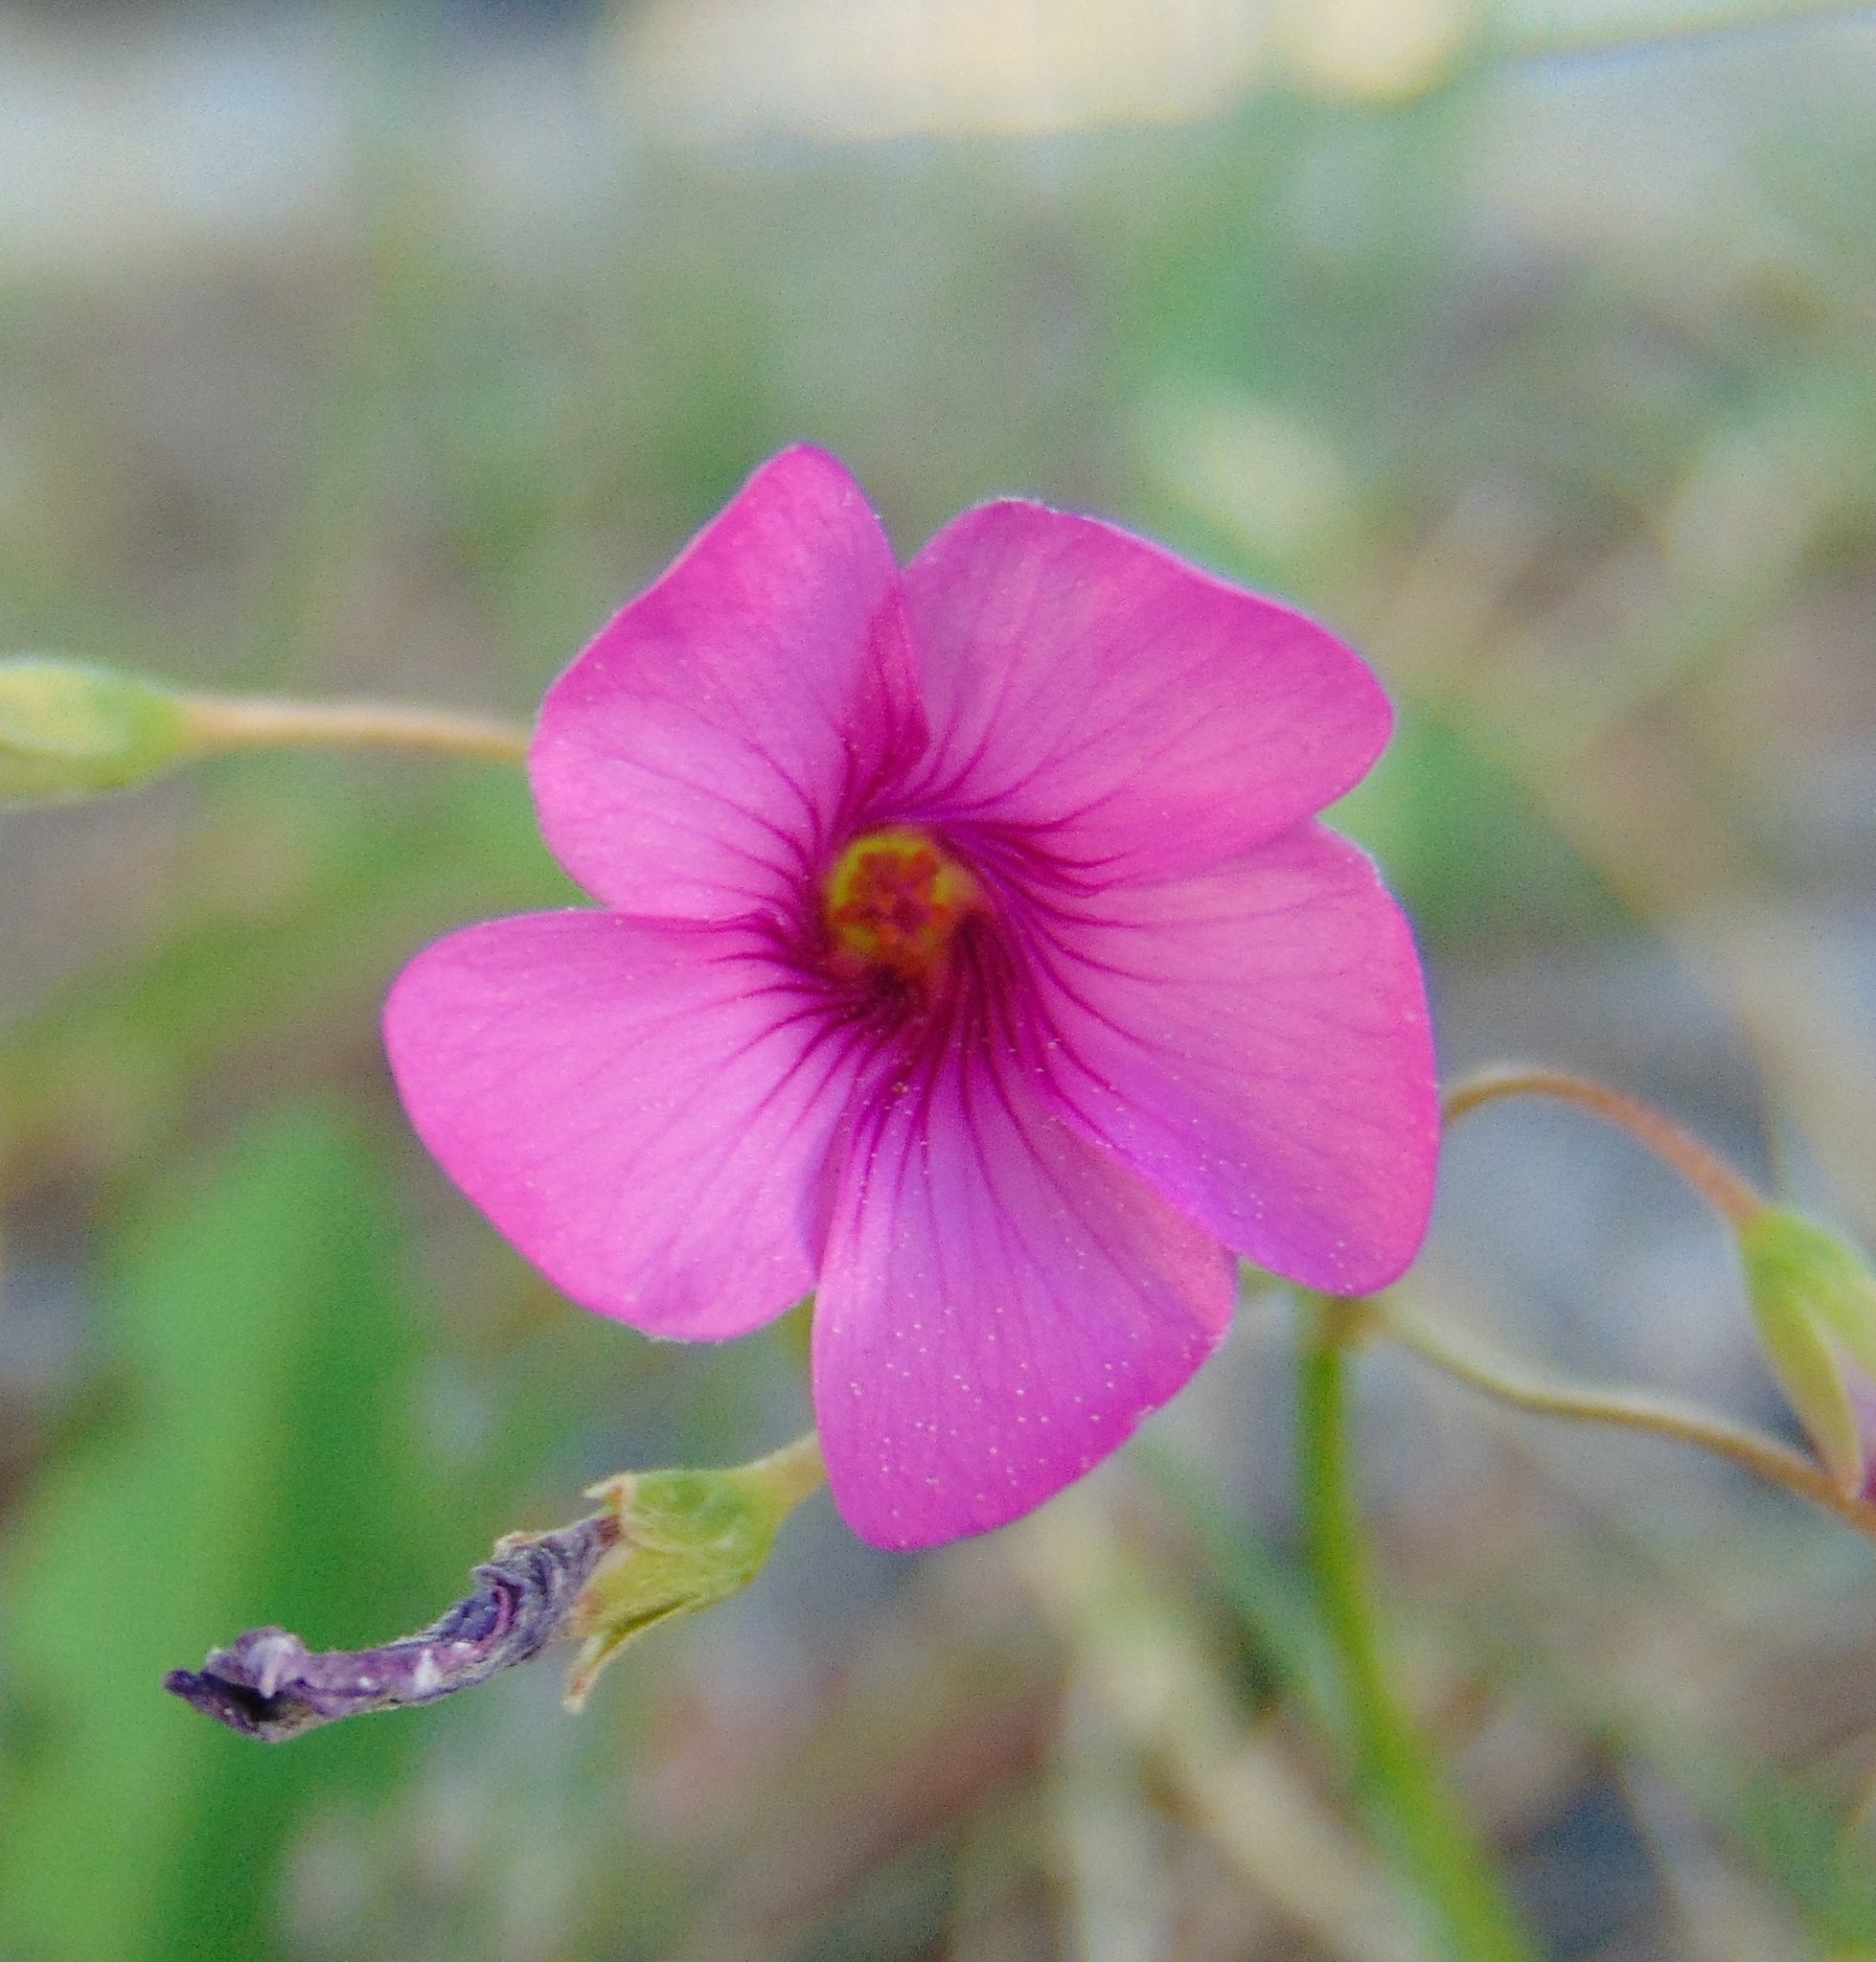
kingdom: Plantae
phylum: Tracheophyta
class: Magnoliopsida
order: Oxalidales
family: Oxalidaceae
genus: Oxalis
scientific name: Oxalis articulata
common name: Pink-sorrel
